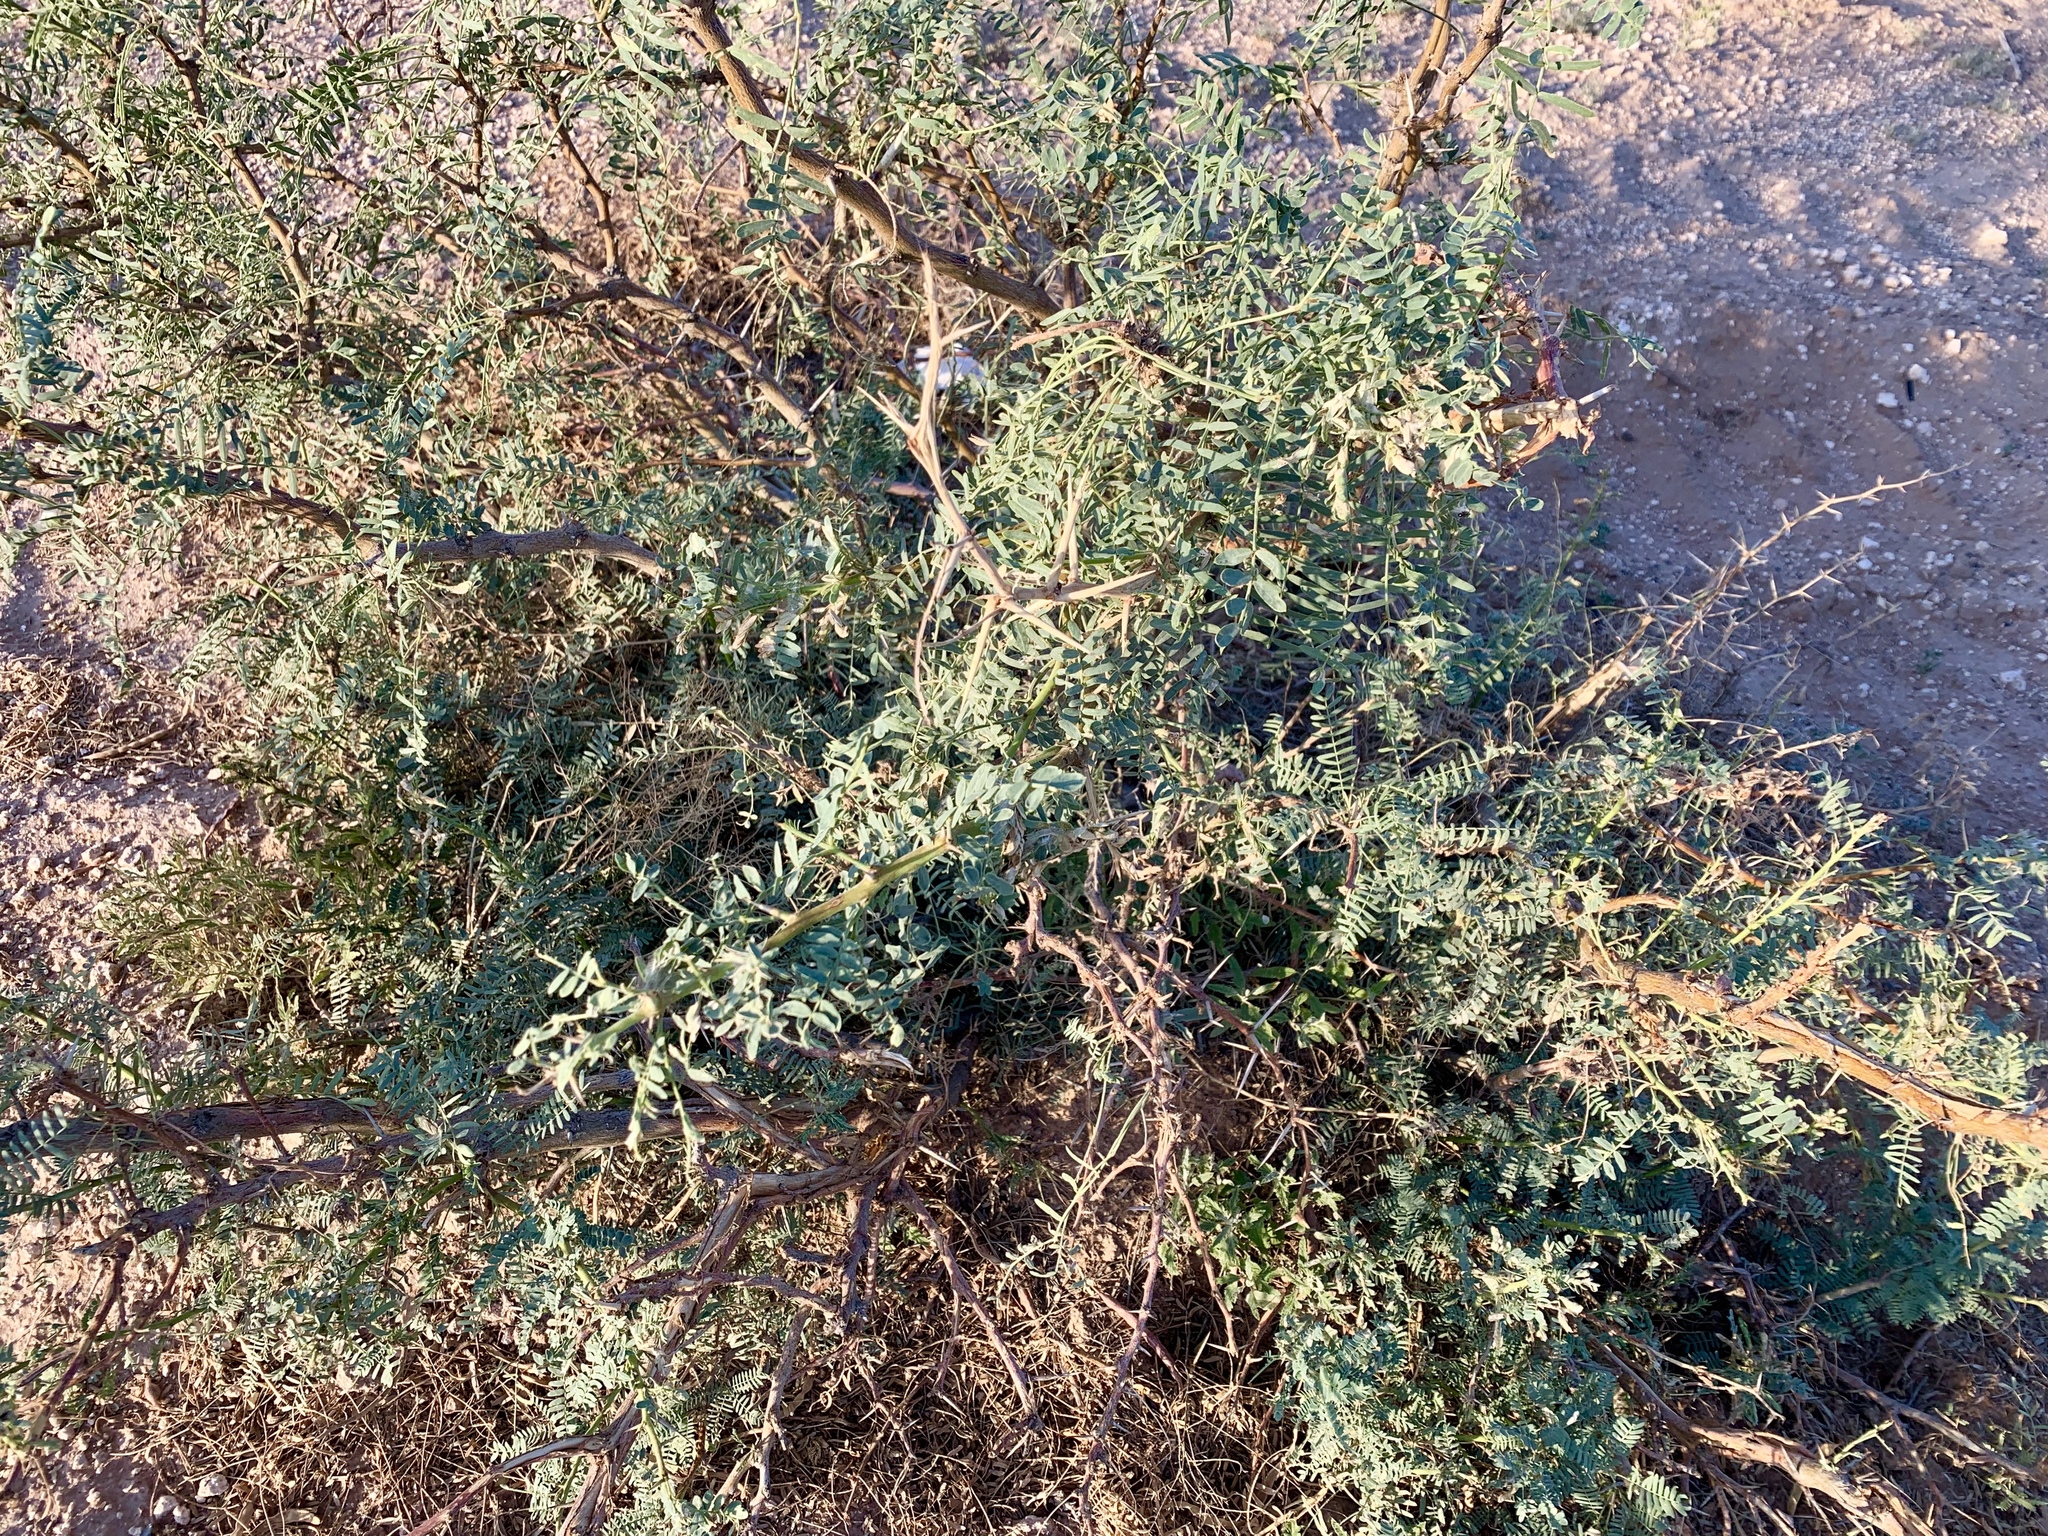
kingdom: Plantae
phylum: Tracheophyta
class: Magnoliopsida
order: Fabales
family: Fabaceae
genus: Prosopis
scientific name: Prosopis glandulosa
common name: Honey mesquite
